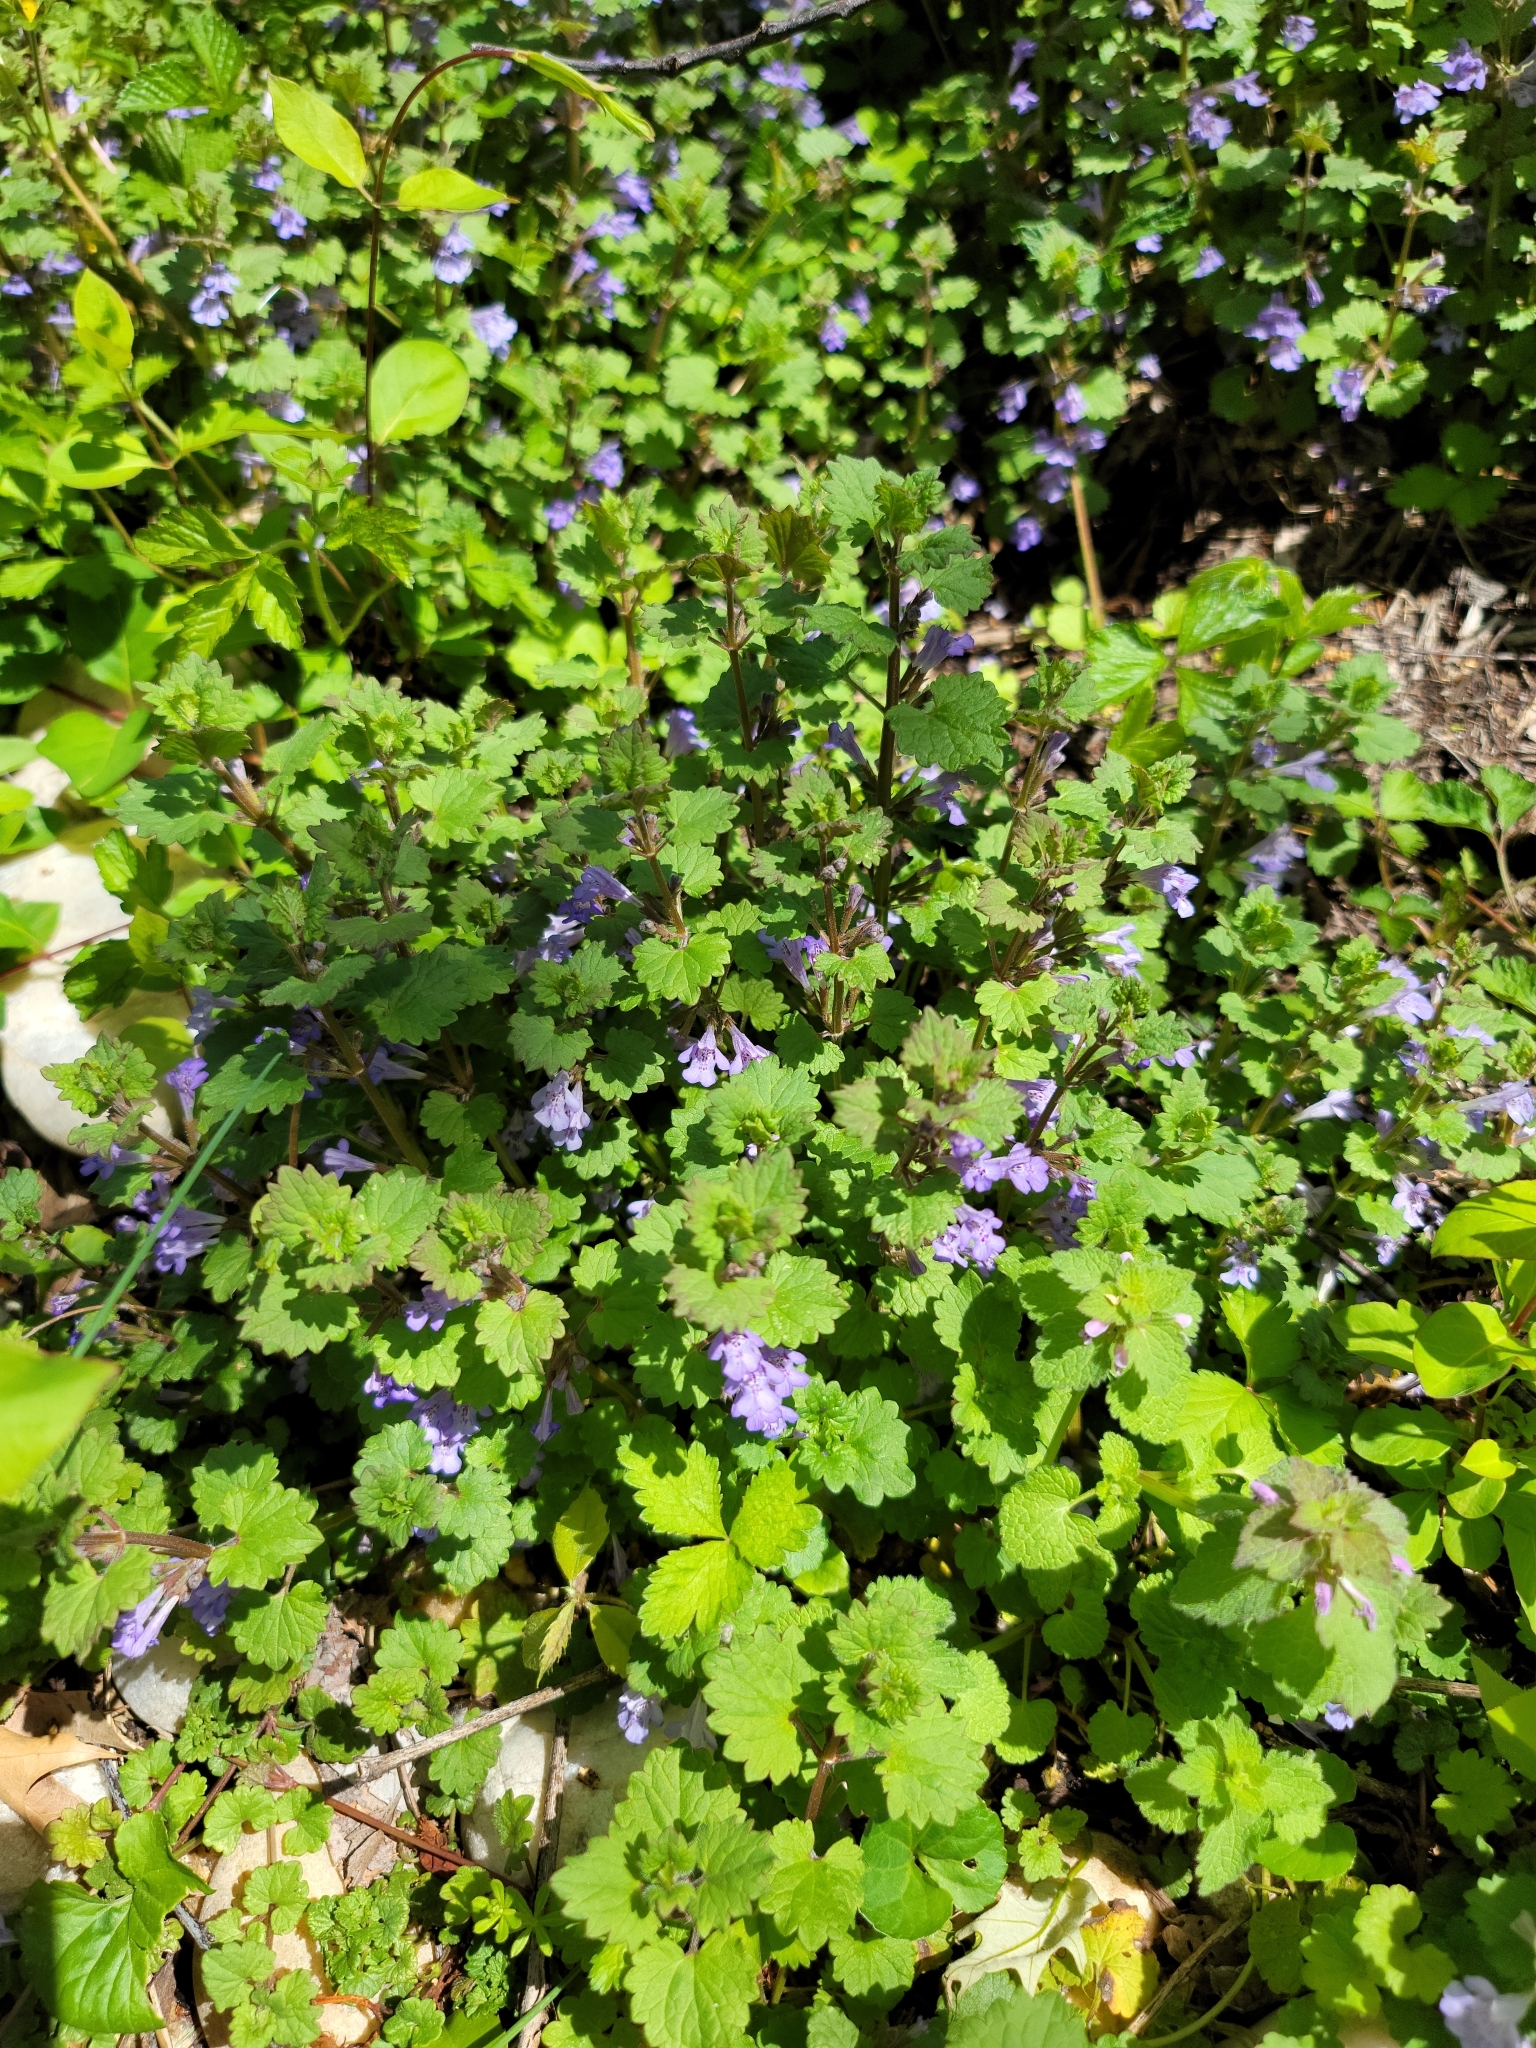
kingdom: Plantae
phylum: Tracheophyta
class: Magnoliopsida
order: Lamiales
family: Lamiaceae
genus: Glechoma
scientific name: Glechoma hederacea
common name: Ground ivy
